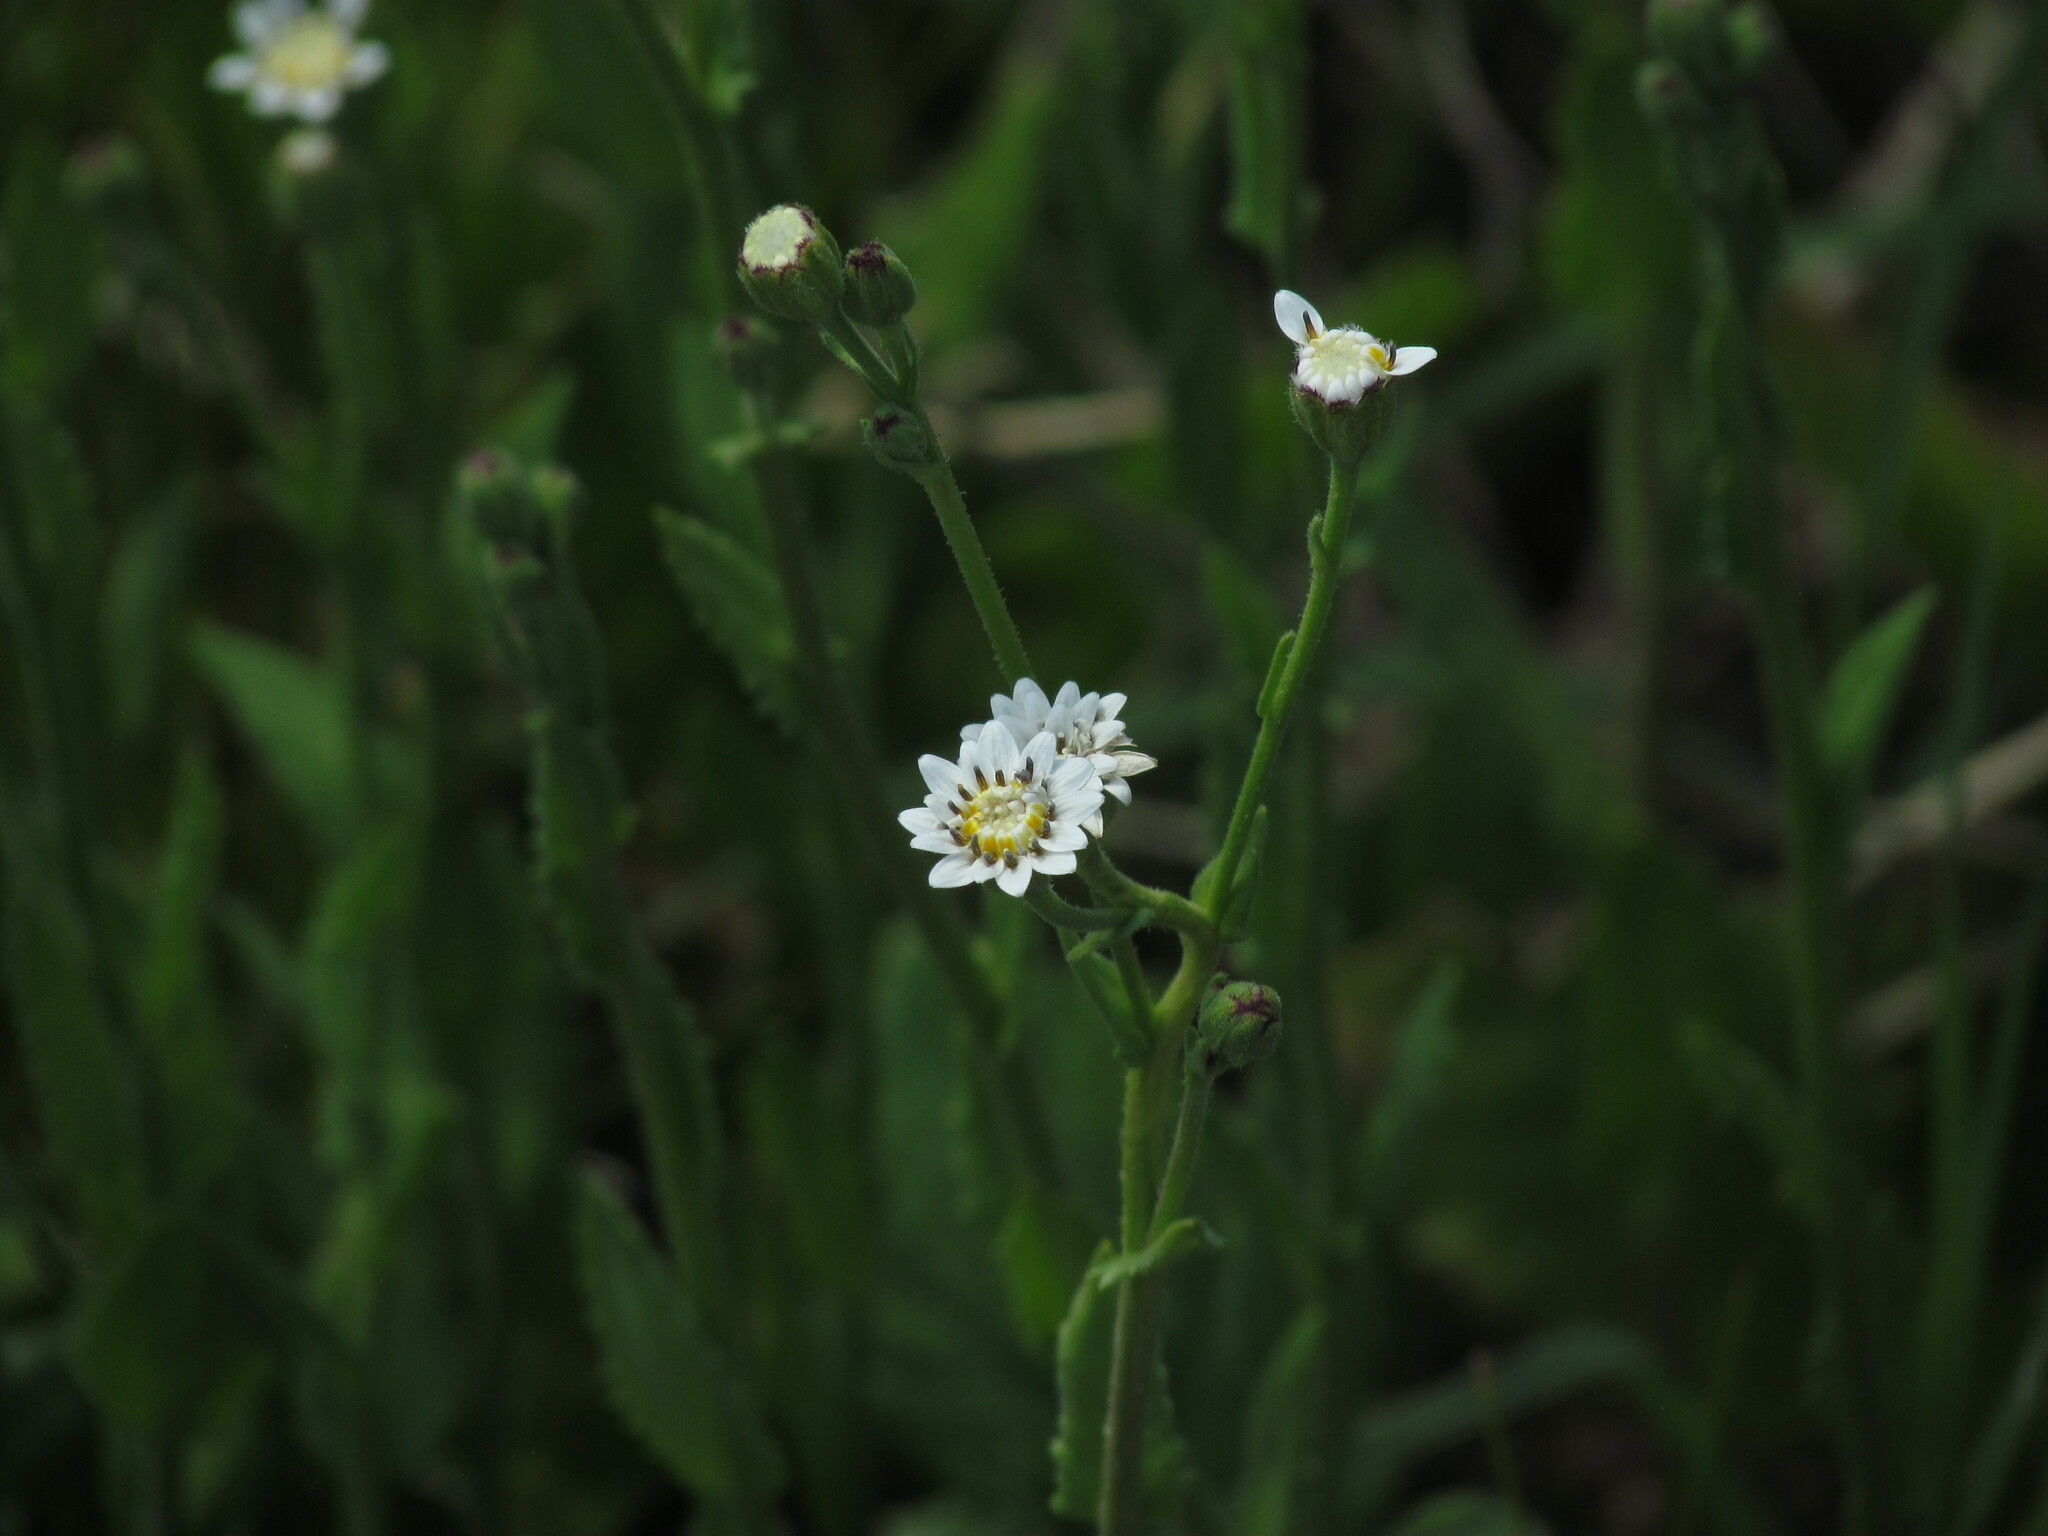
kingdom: Plantae
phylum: Tracheophyta
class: Magnoliopsida
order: Asterales
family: Asteraceae
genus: Holocheilus
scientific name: Holocheilus hieracioides
